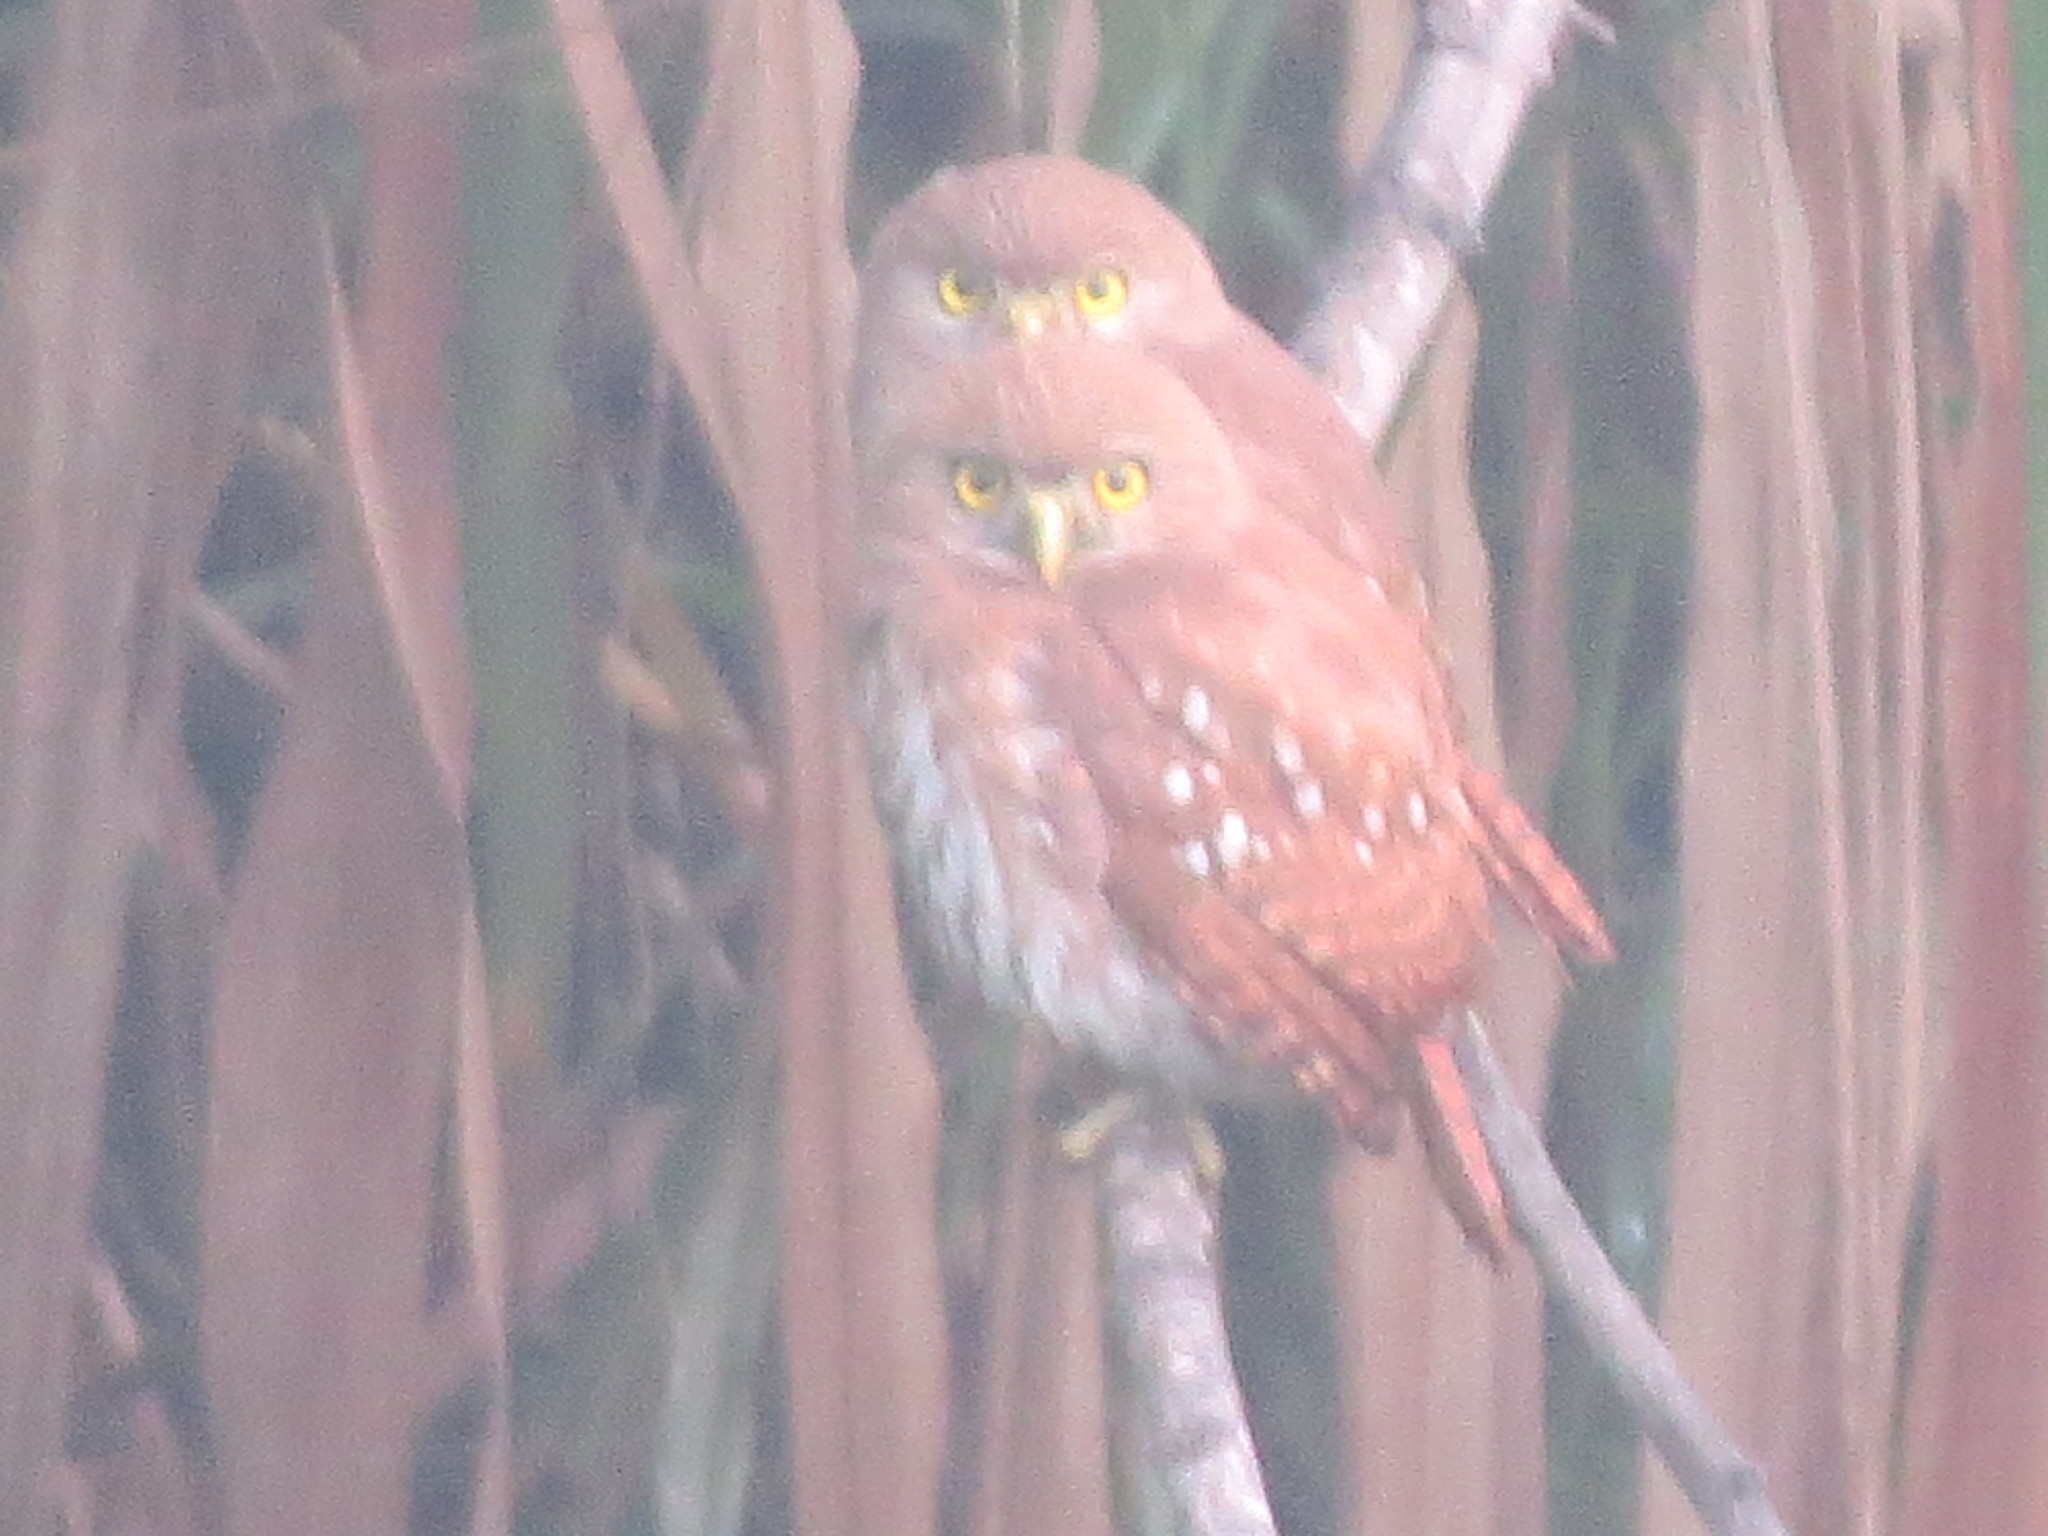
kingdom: Animalia
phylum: Chordata
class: Aves
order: Strigiformes
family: Strigidae
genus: Glaucidium
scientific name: Glaucidium brasilianum
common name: Ferruginous pygmy-owl
